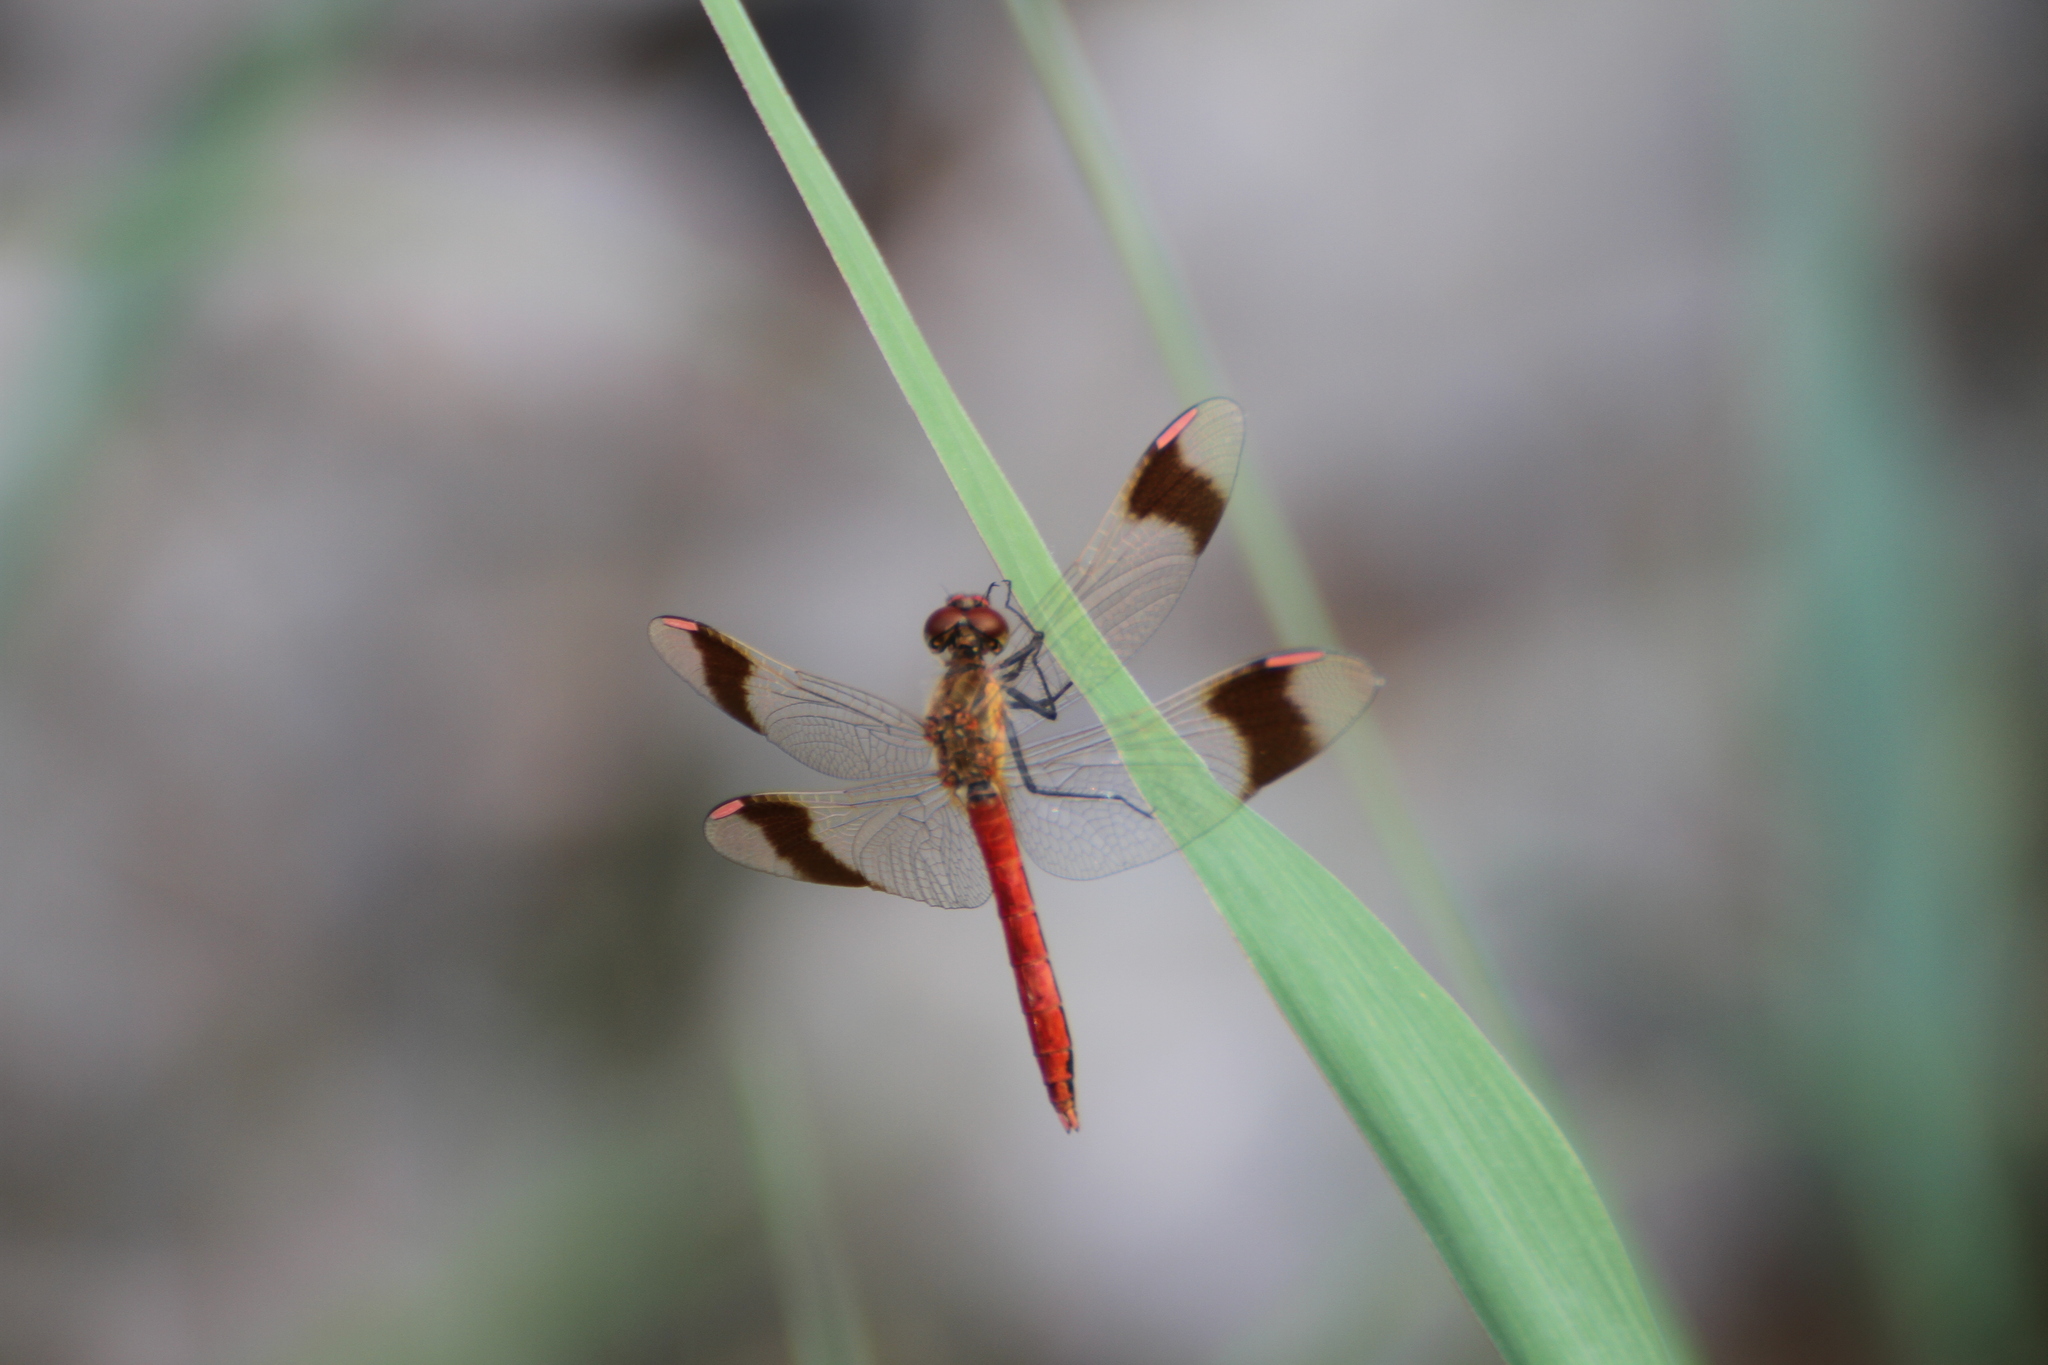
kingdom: Animalia
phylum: Arthropoda
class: Insecta
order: Odonata
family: Libellulidae
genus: Sympetrum
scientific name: Sympetrum pedemontanum
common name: Banded darter
